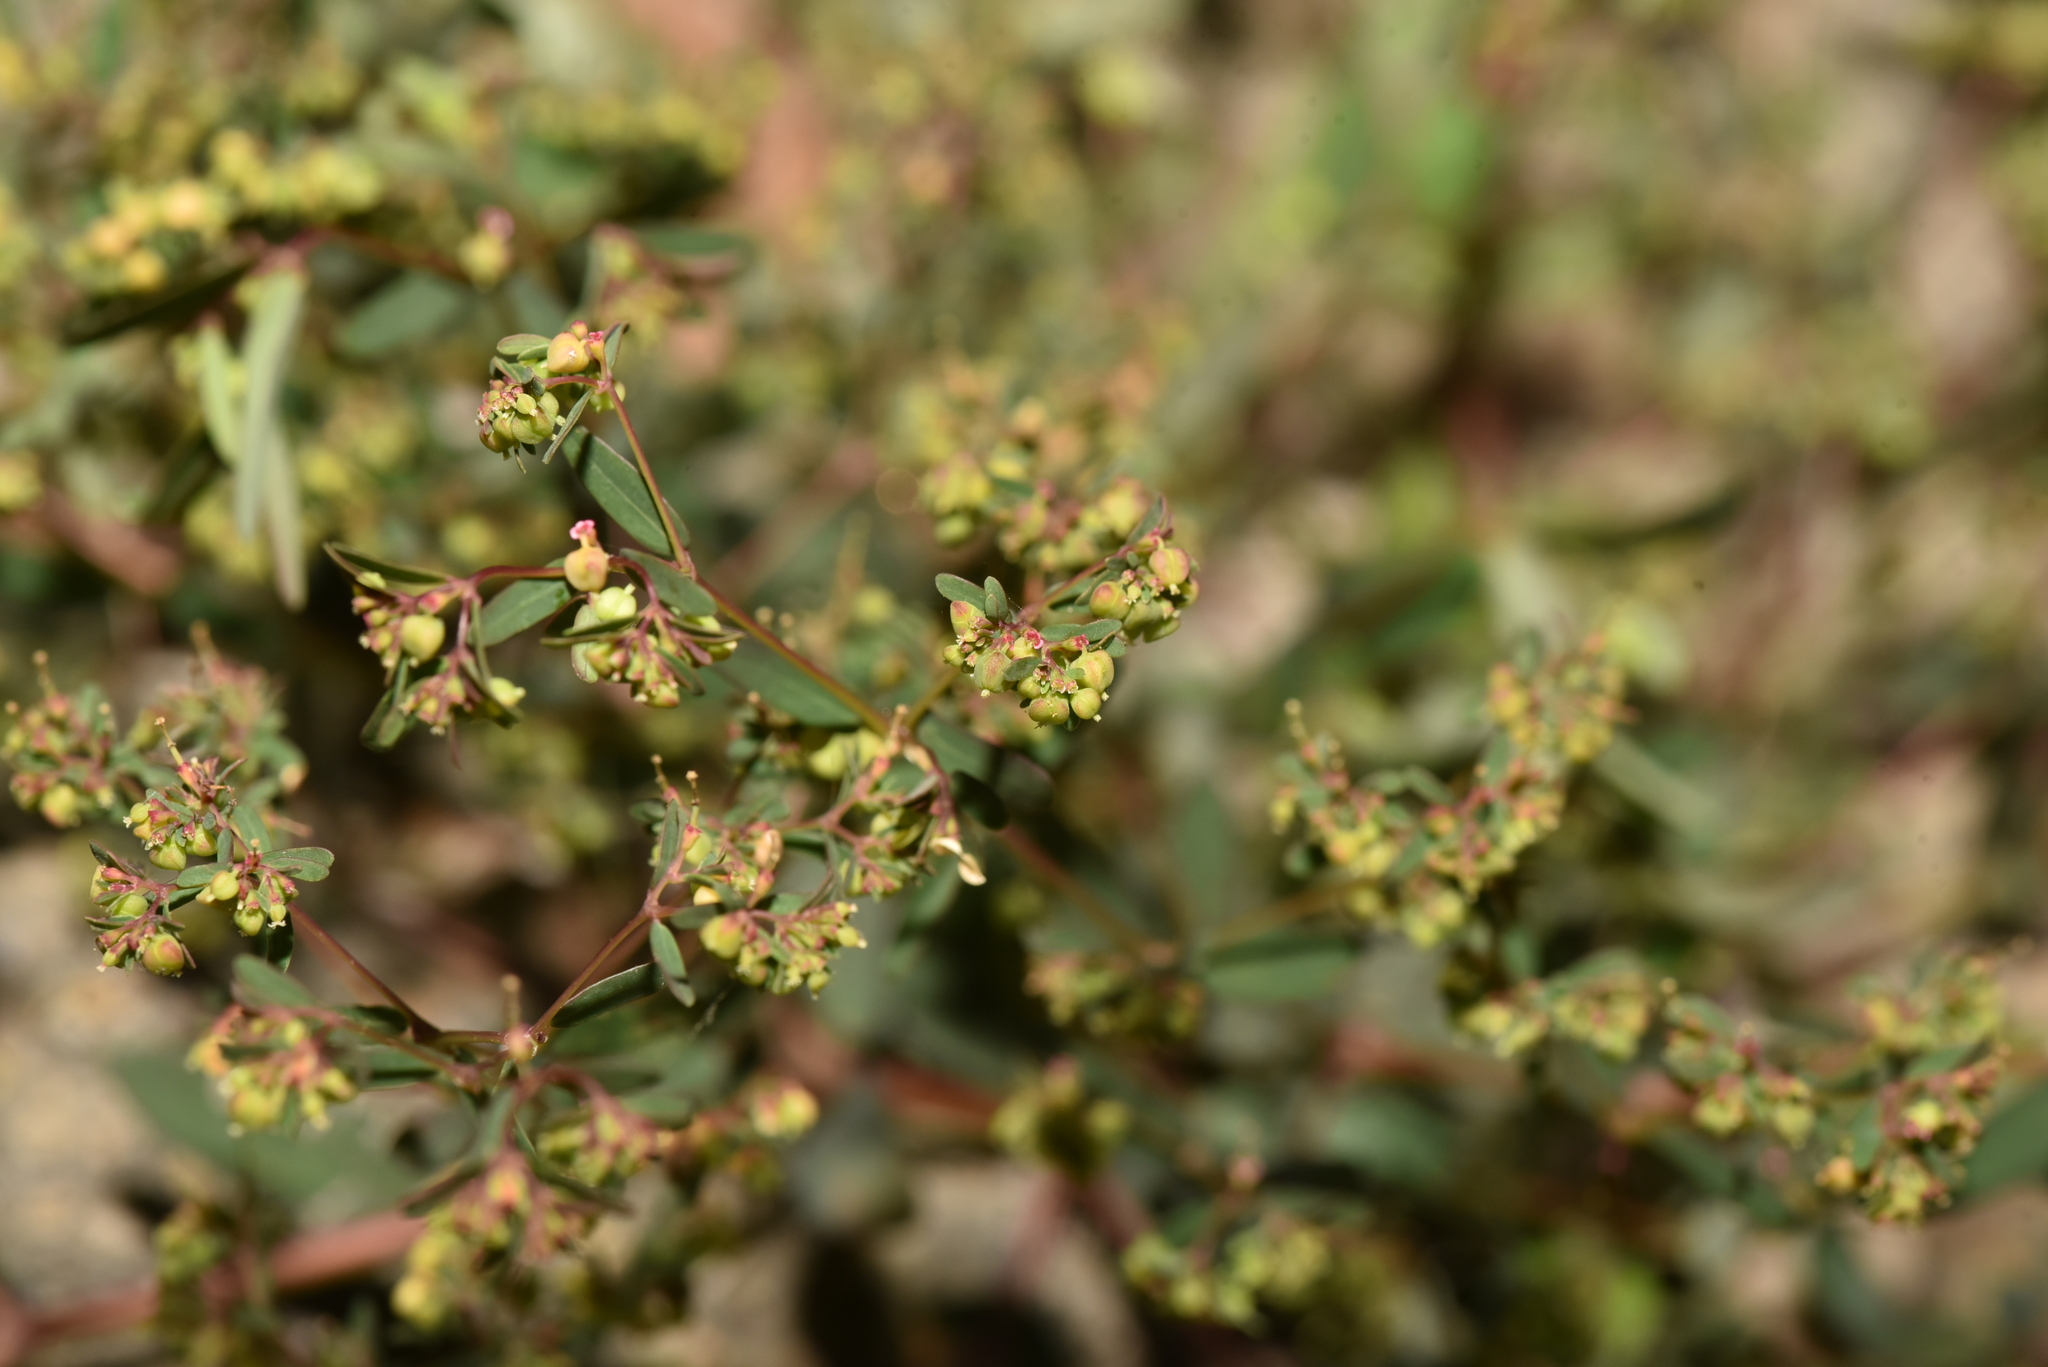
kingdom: Plantae
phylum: Tracheophyta
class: Magnoliopsida
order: Malpighiales
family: Euphorbiaceae
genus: Euphorbia
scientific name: Euphorbia hyssopifolia
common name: Hyssopleaf sandmat
